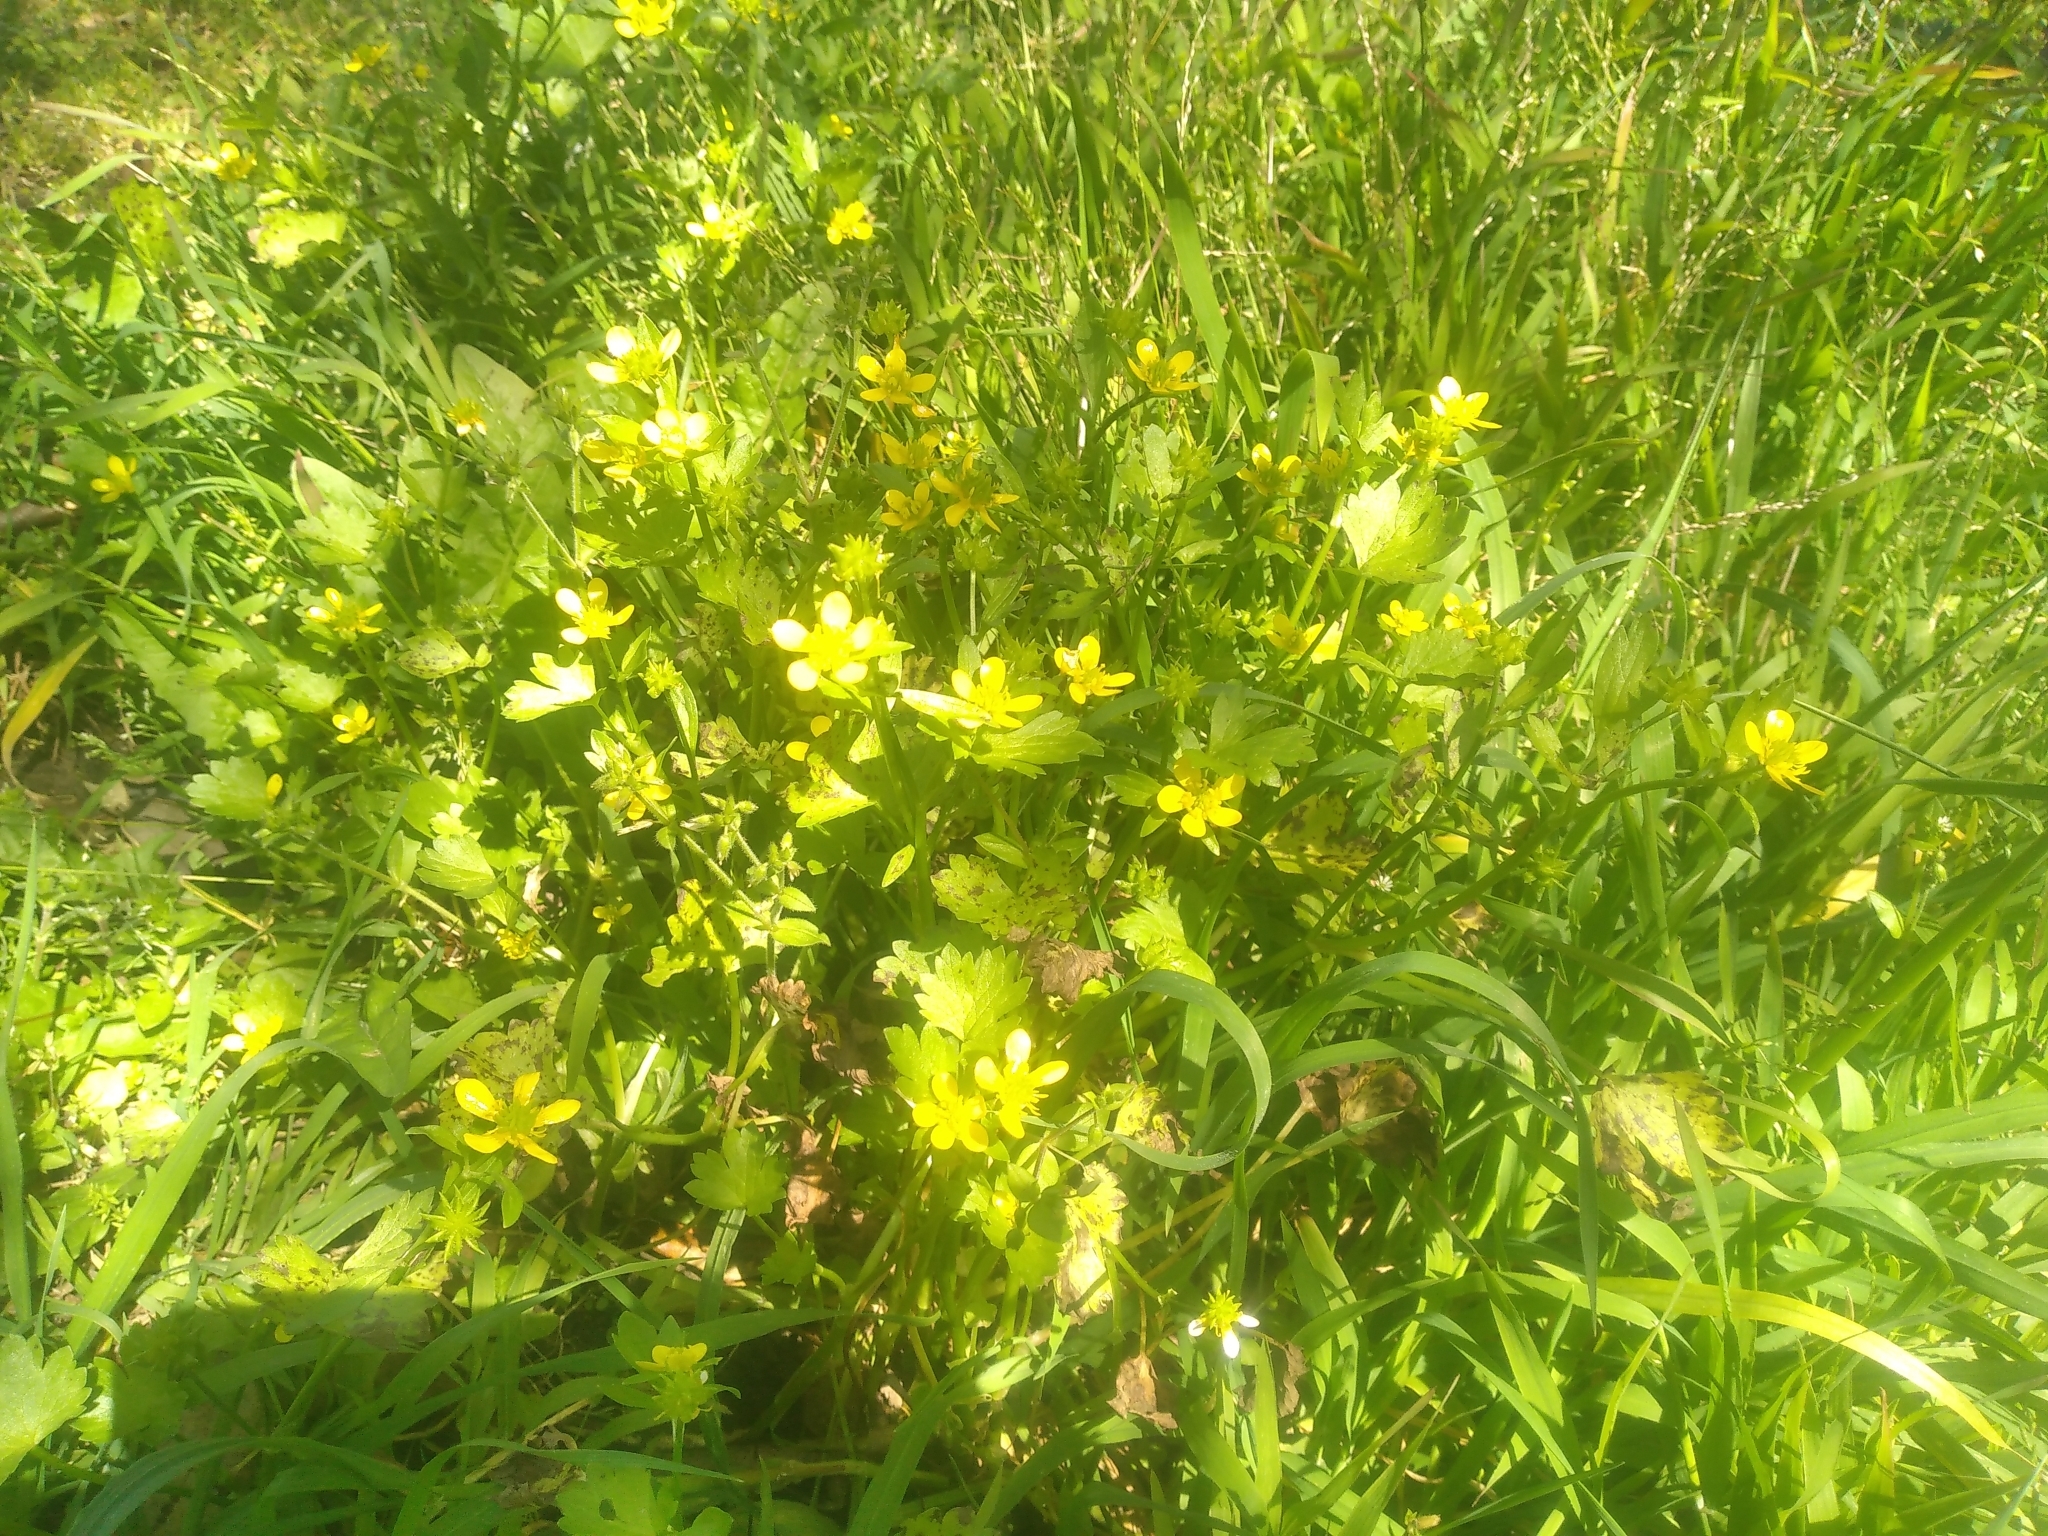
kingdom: Plantae
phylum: Tracheophyta
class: Magnoliopsida
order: Ranunculales
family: Ranunculaceae
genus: Ranunculus
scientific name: Ranunculus muricatus
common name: Rough-fruited buttercup
